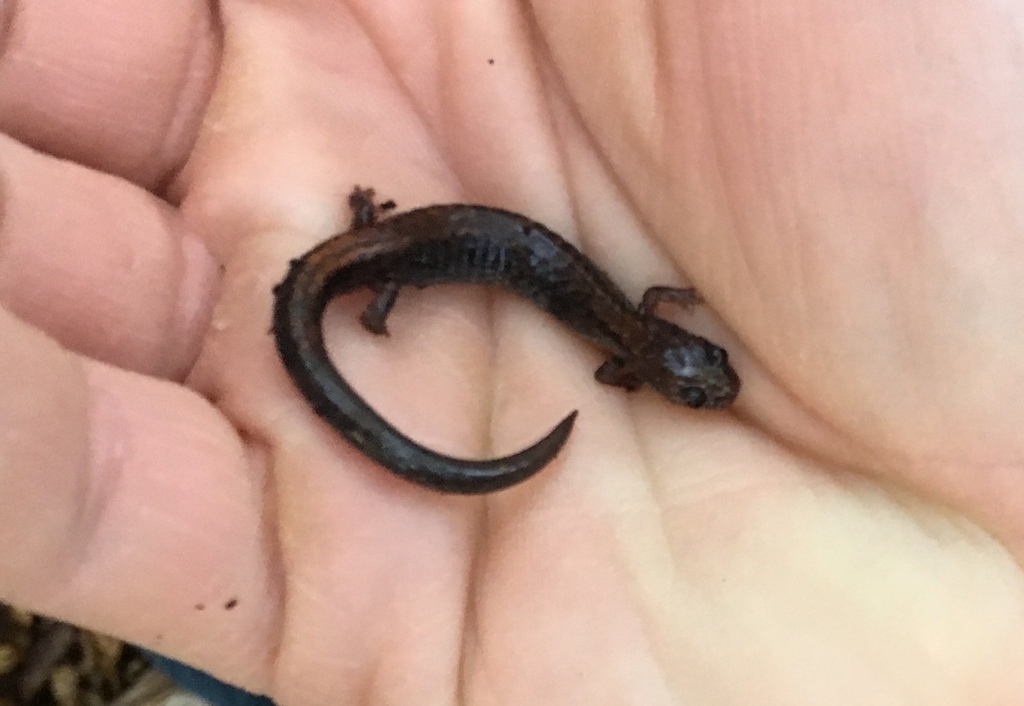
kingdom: Animalia
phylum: Chordata
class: Amphibia
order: Caudata
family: Plethodontidae
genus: Plethodon
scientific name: Plethodon cinereus
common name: Redback salamander
